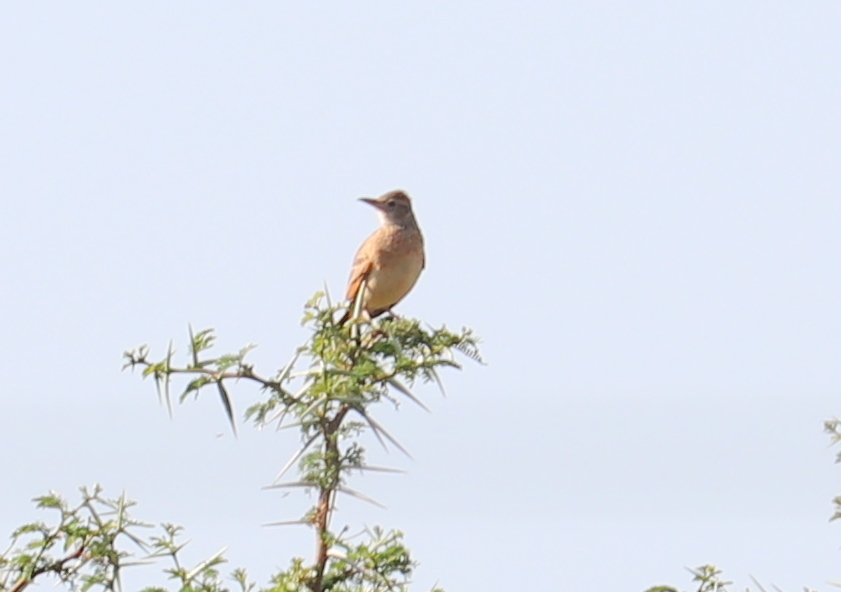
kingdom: Animalia
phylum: Chordata
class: Aves
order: Passeriformes
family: Alaudidae
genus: Mirafra
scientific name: Mirafra africana
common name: Rufous-naped lark
